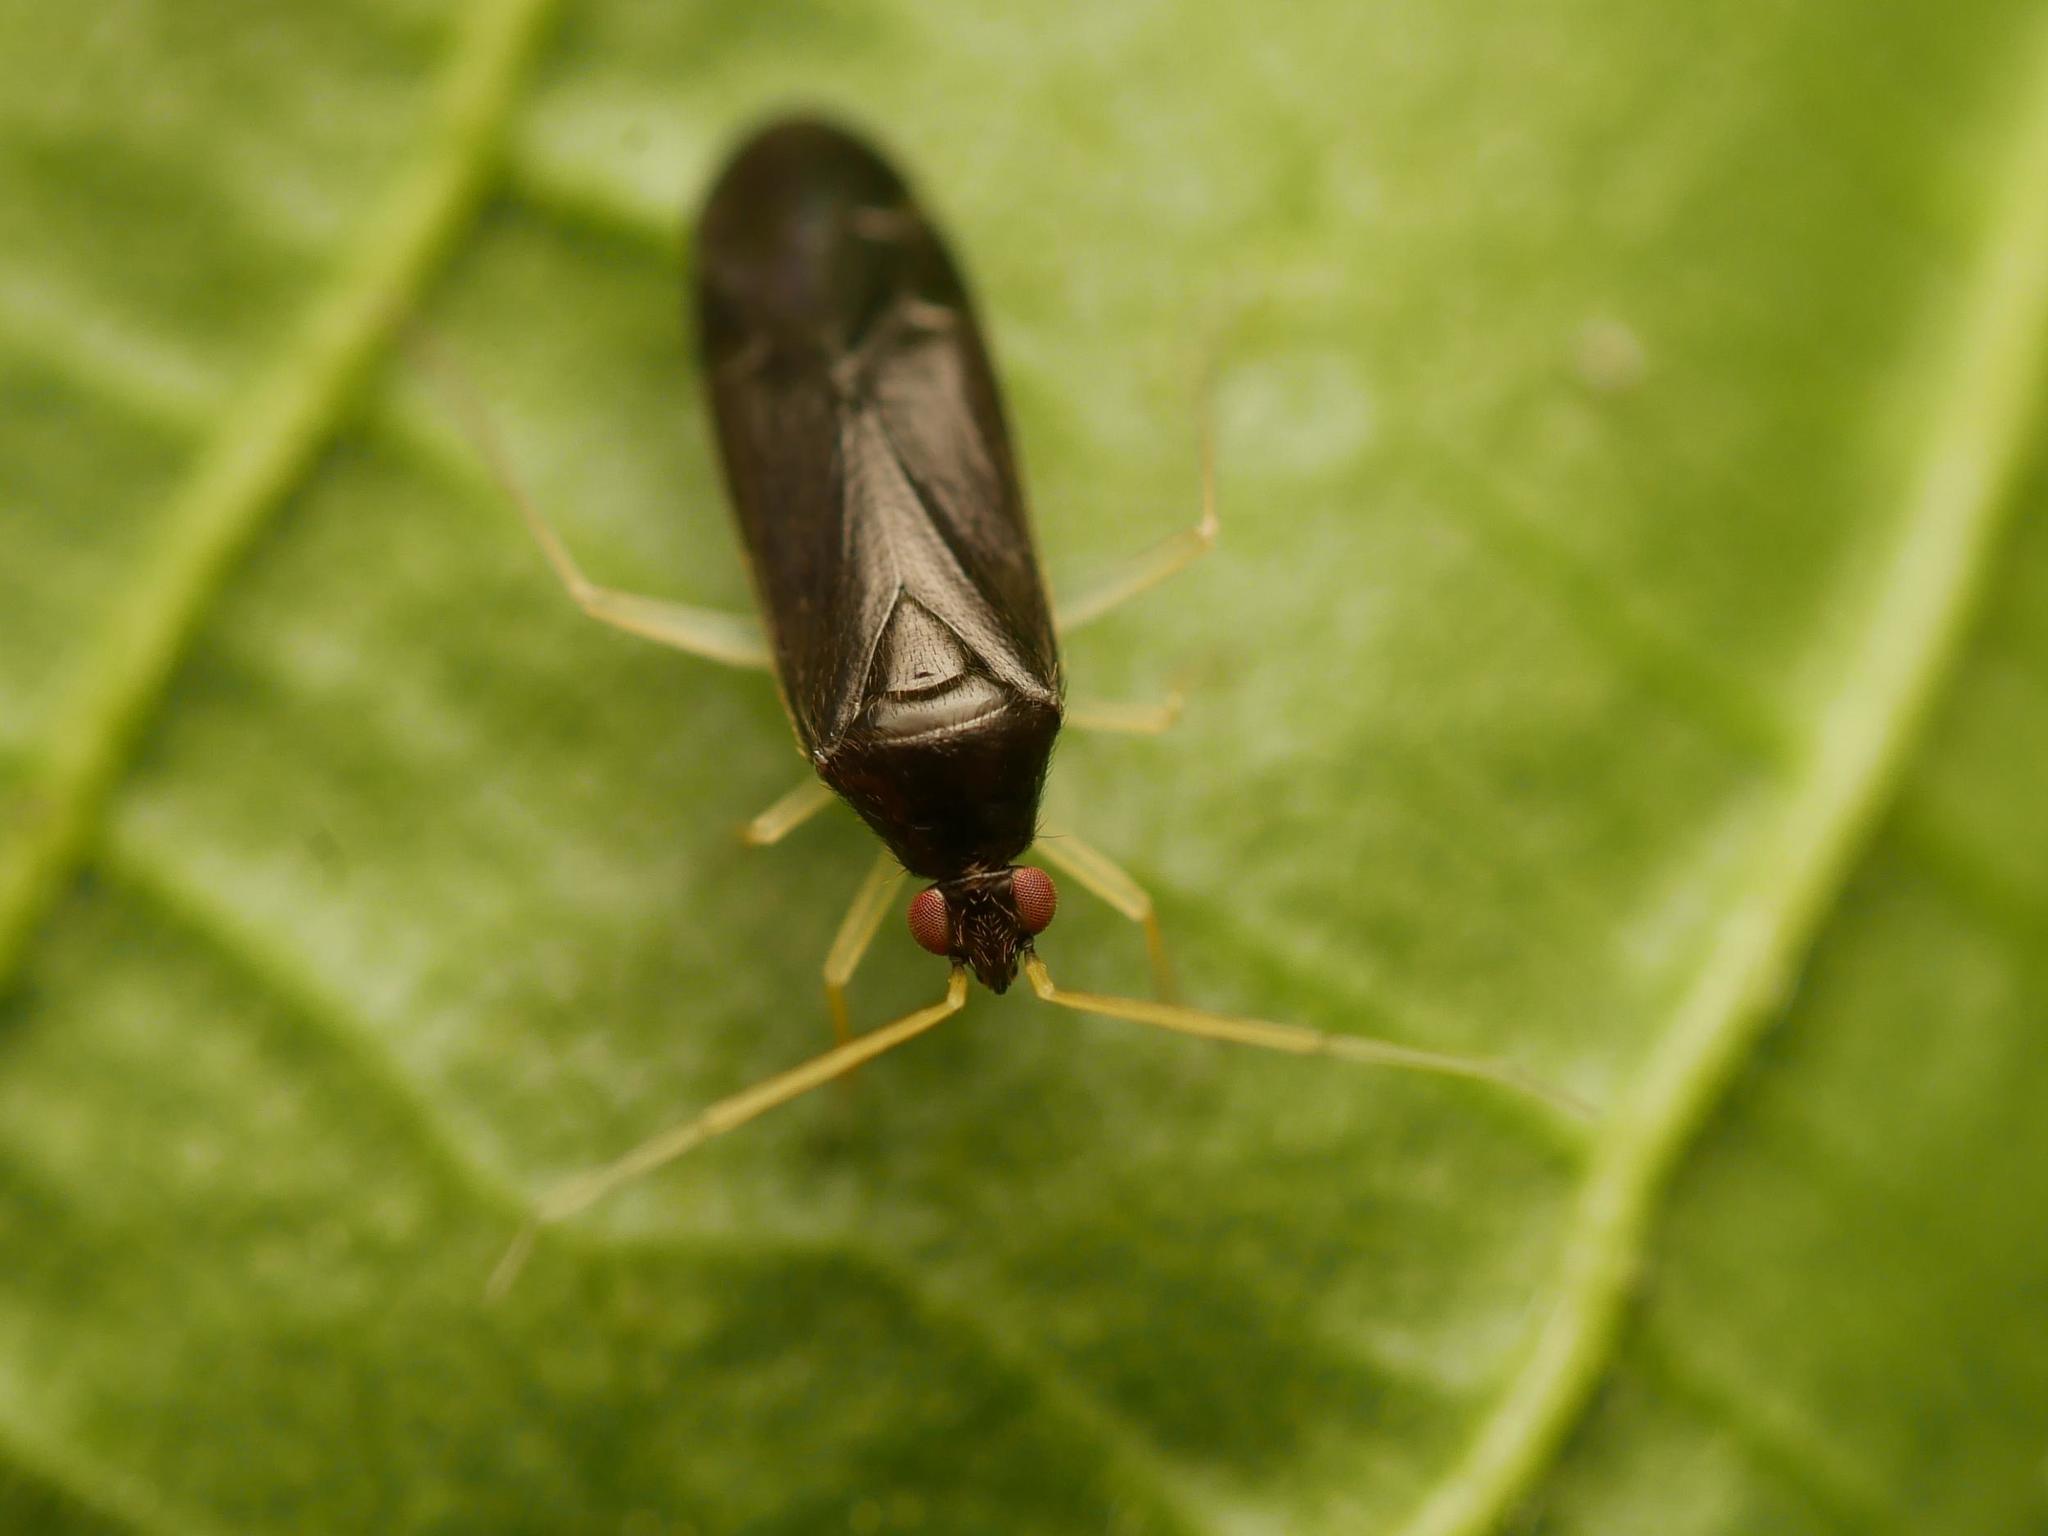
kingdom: Animalia
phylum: Arthropoda
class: Insecta
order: Hemiptera
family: Miridae
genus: Phylus
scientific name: Phylus coryli
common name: Plant bug
